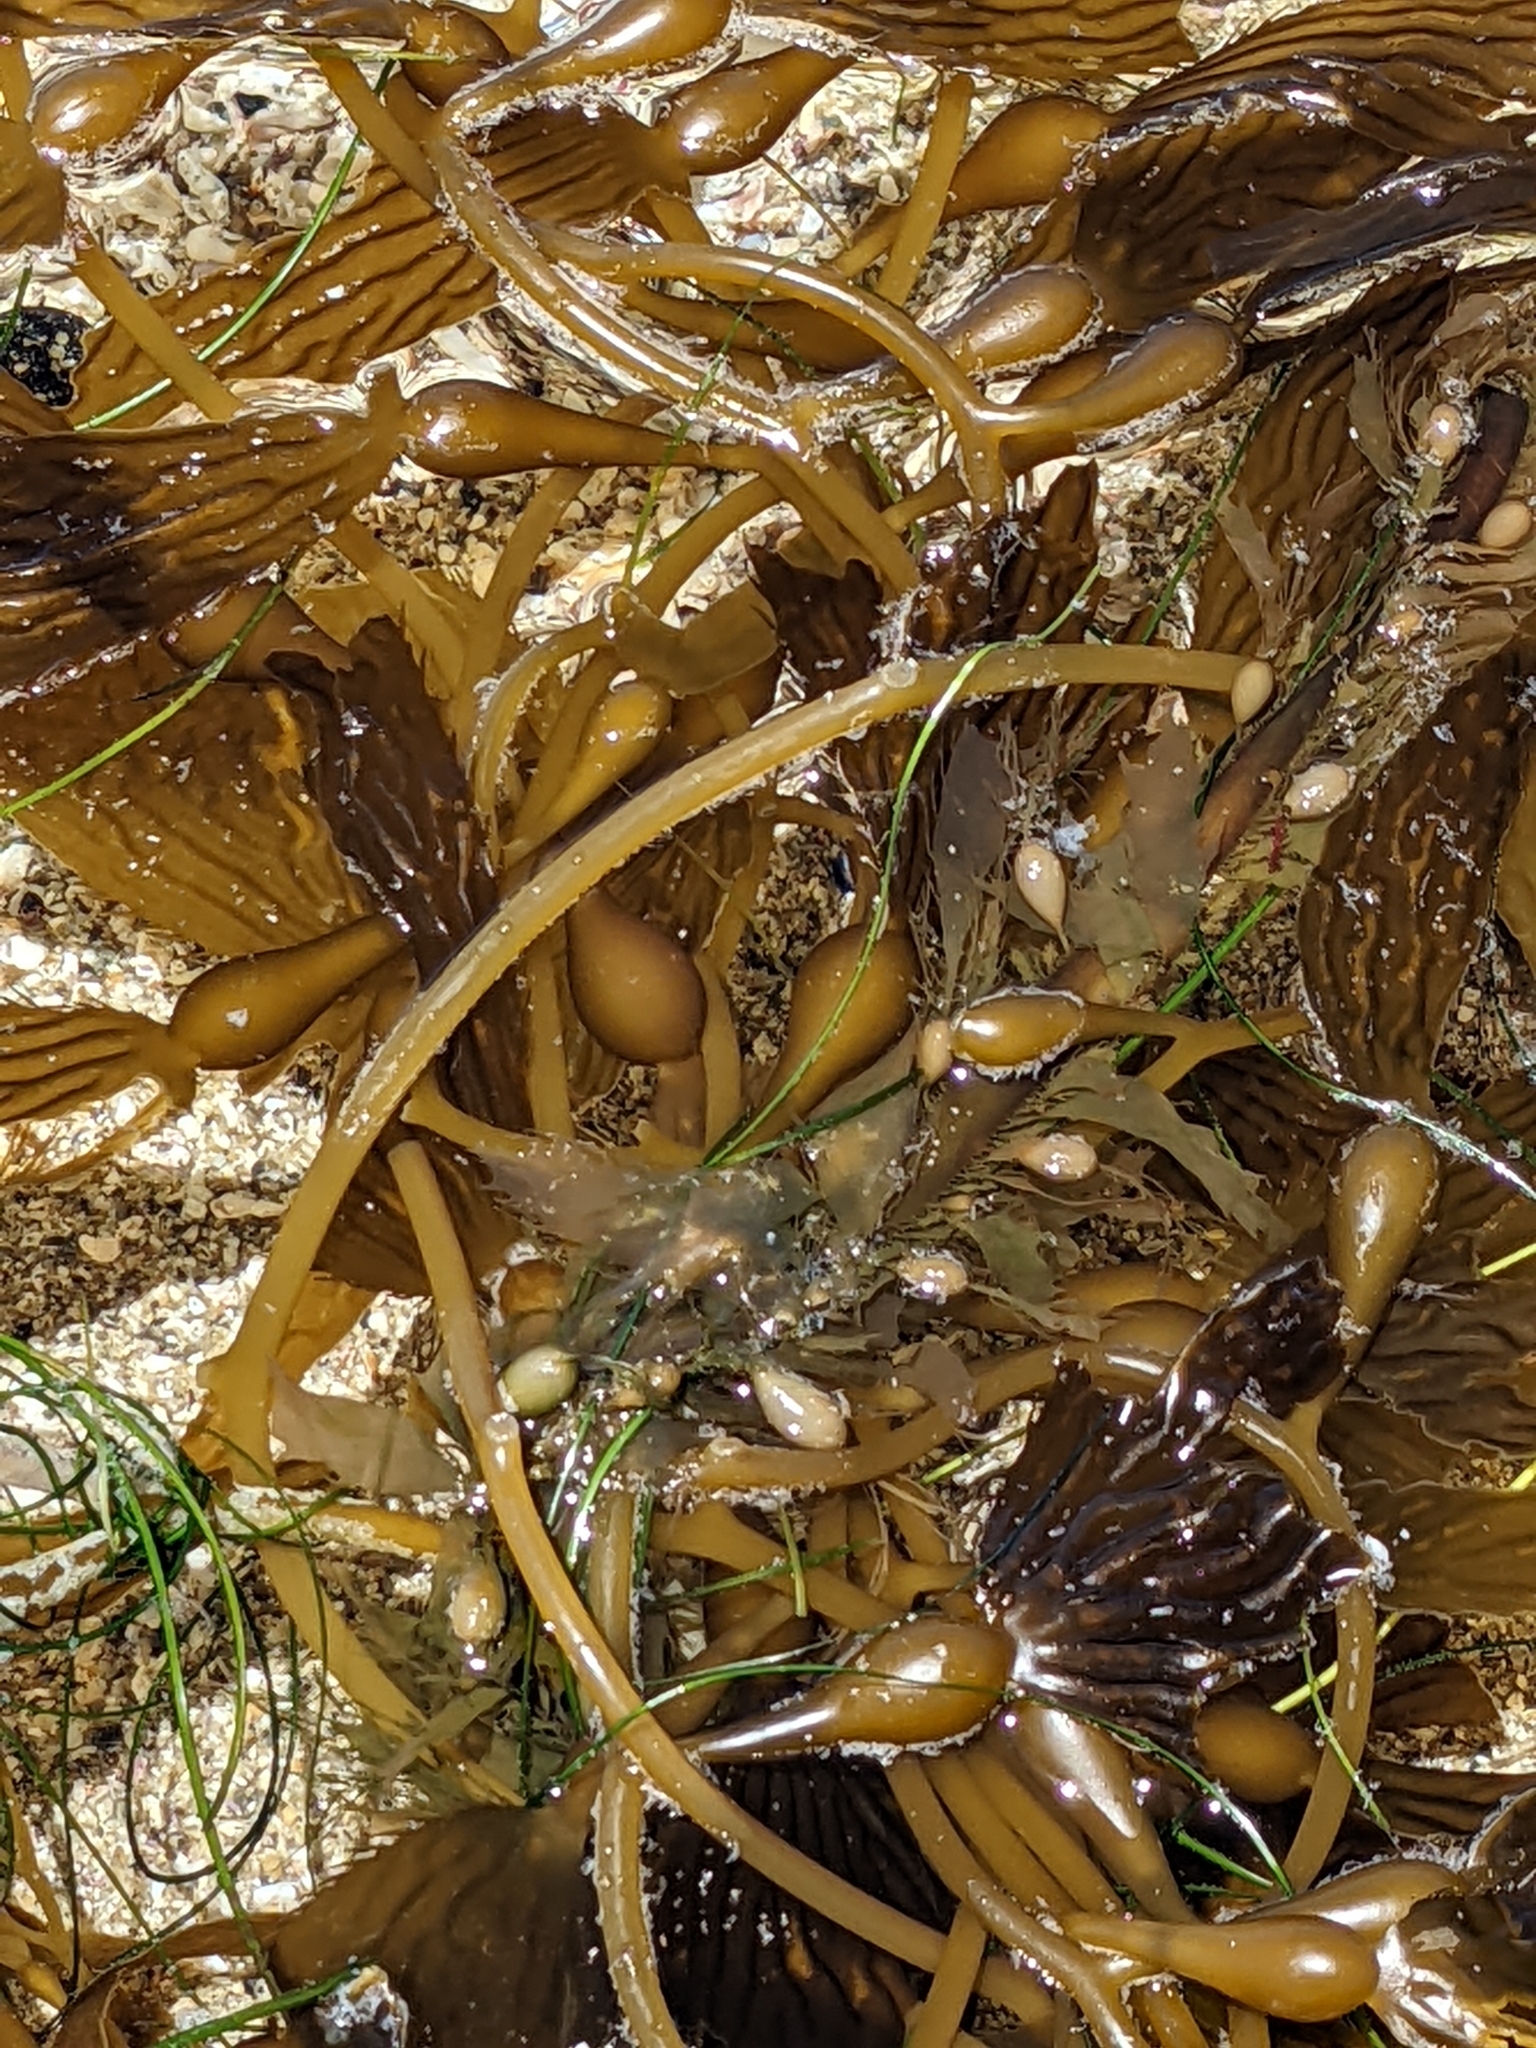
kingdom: Chromista
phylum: Ochrophyta
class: Phaeophyceae
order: Laminariales
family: Laminariaceae
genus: Macrocystis
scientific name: Macrocystis pyrifera
